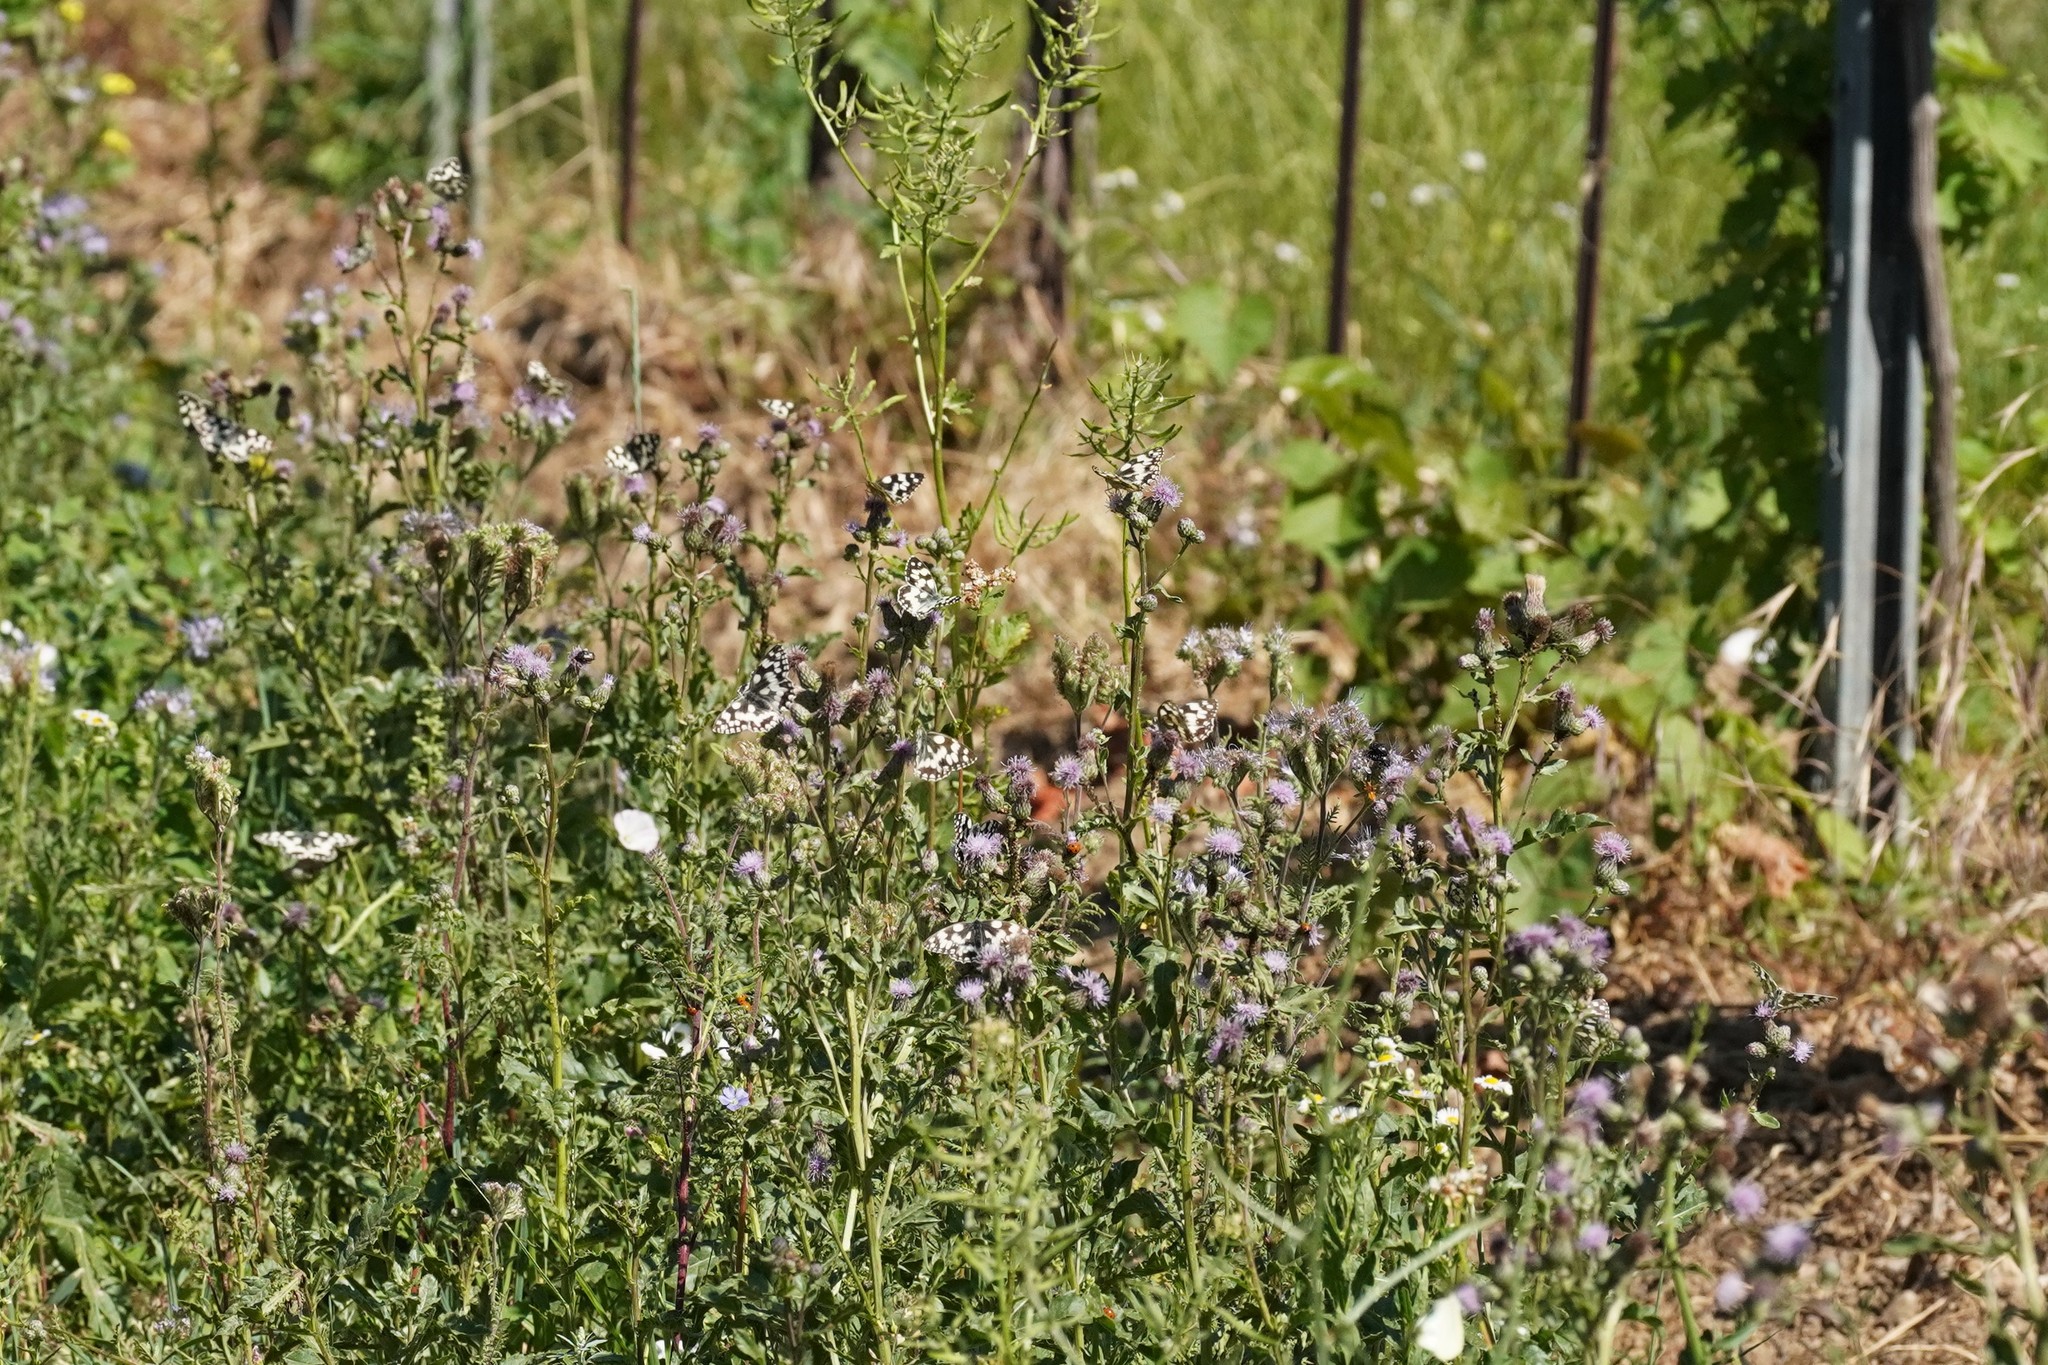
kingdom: Animalia
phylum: Arthropoda
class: Insecta
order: Lepidoptera
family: Nymphalidae
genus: Melanargia
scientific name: Melanargia galathea
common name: Marbled white
